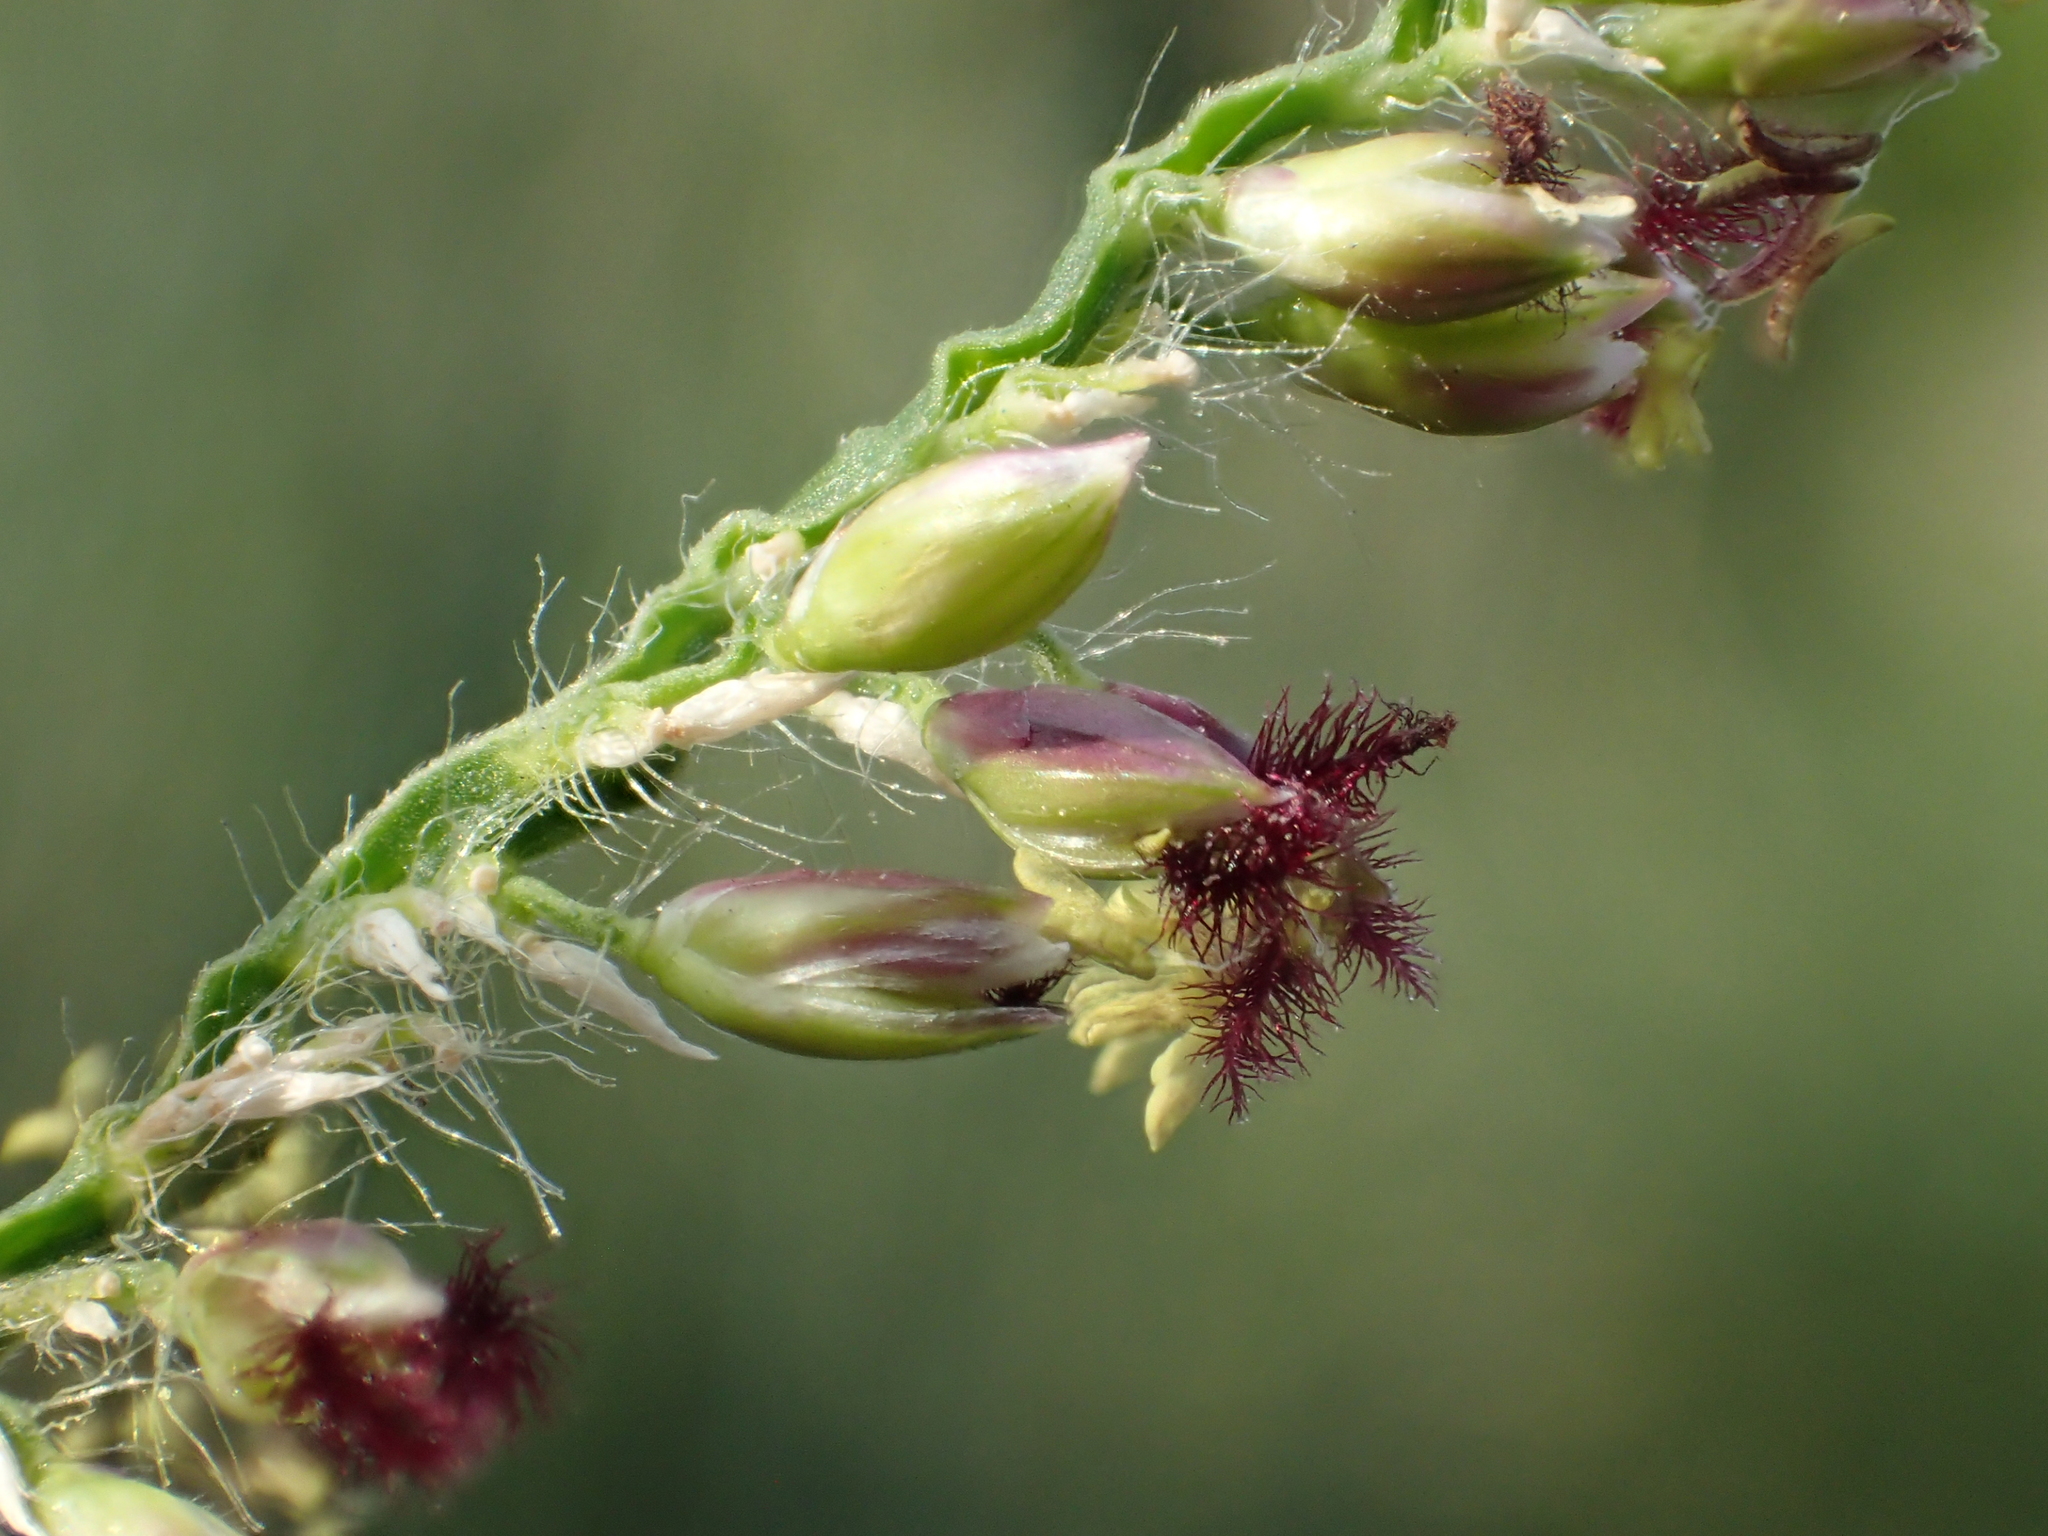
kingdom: Plantae
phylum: Tracheophyta
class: Liliopsida
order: Poales
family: Poaceae
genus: Urochloa
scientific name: Urochloa mutica
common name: Para grass
